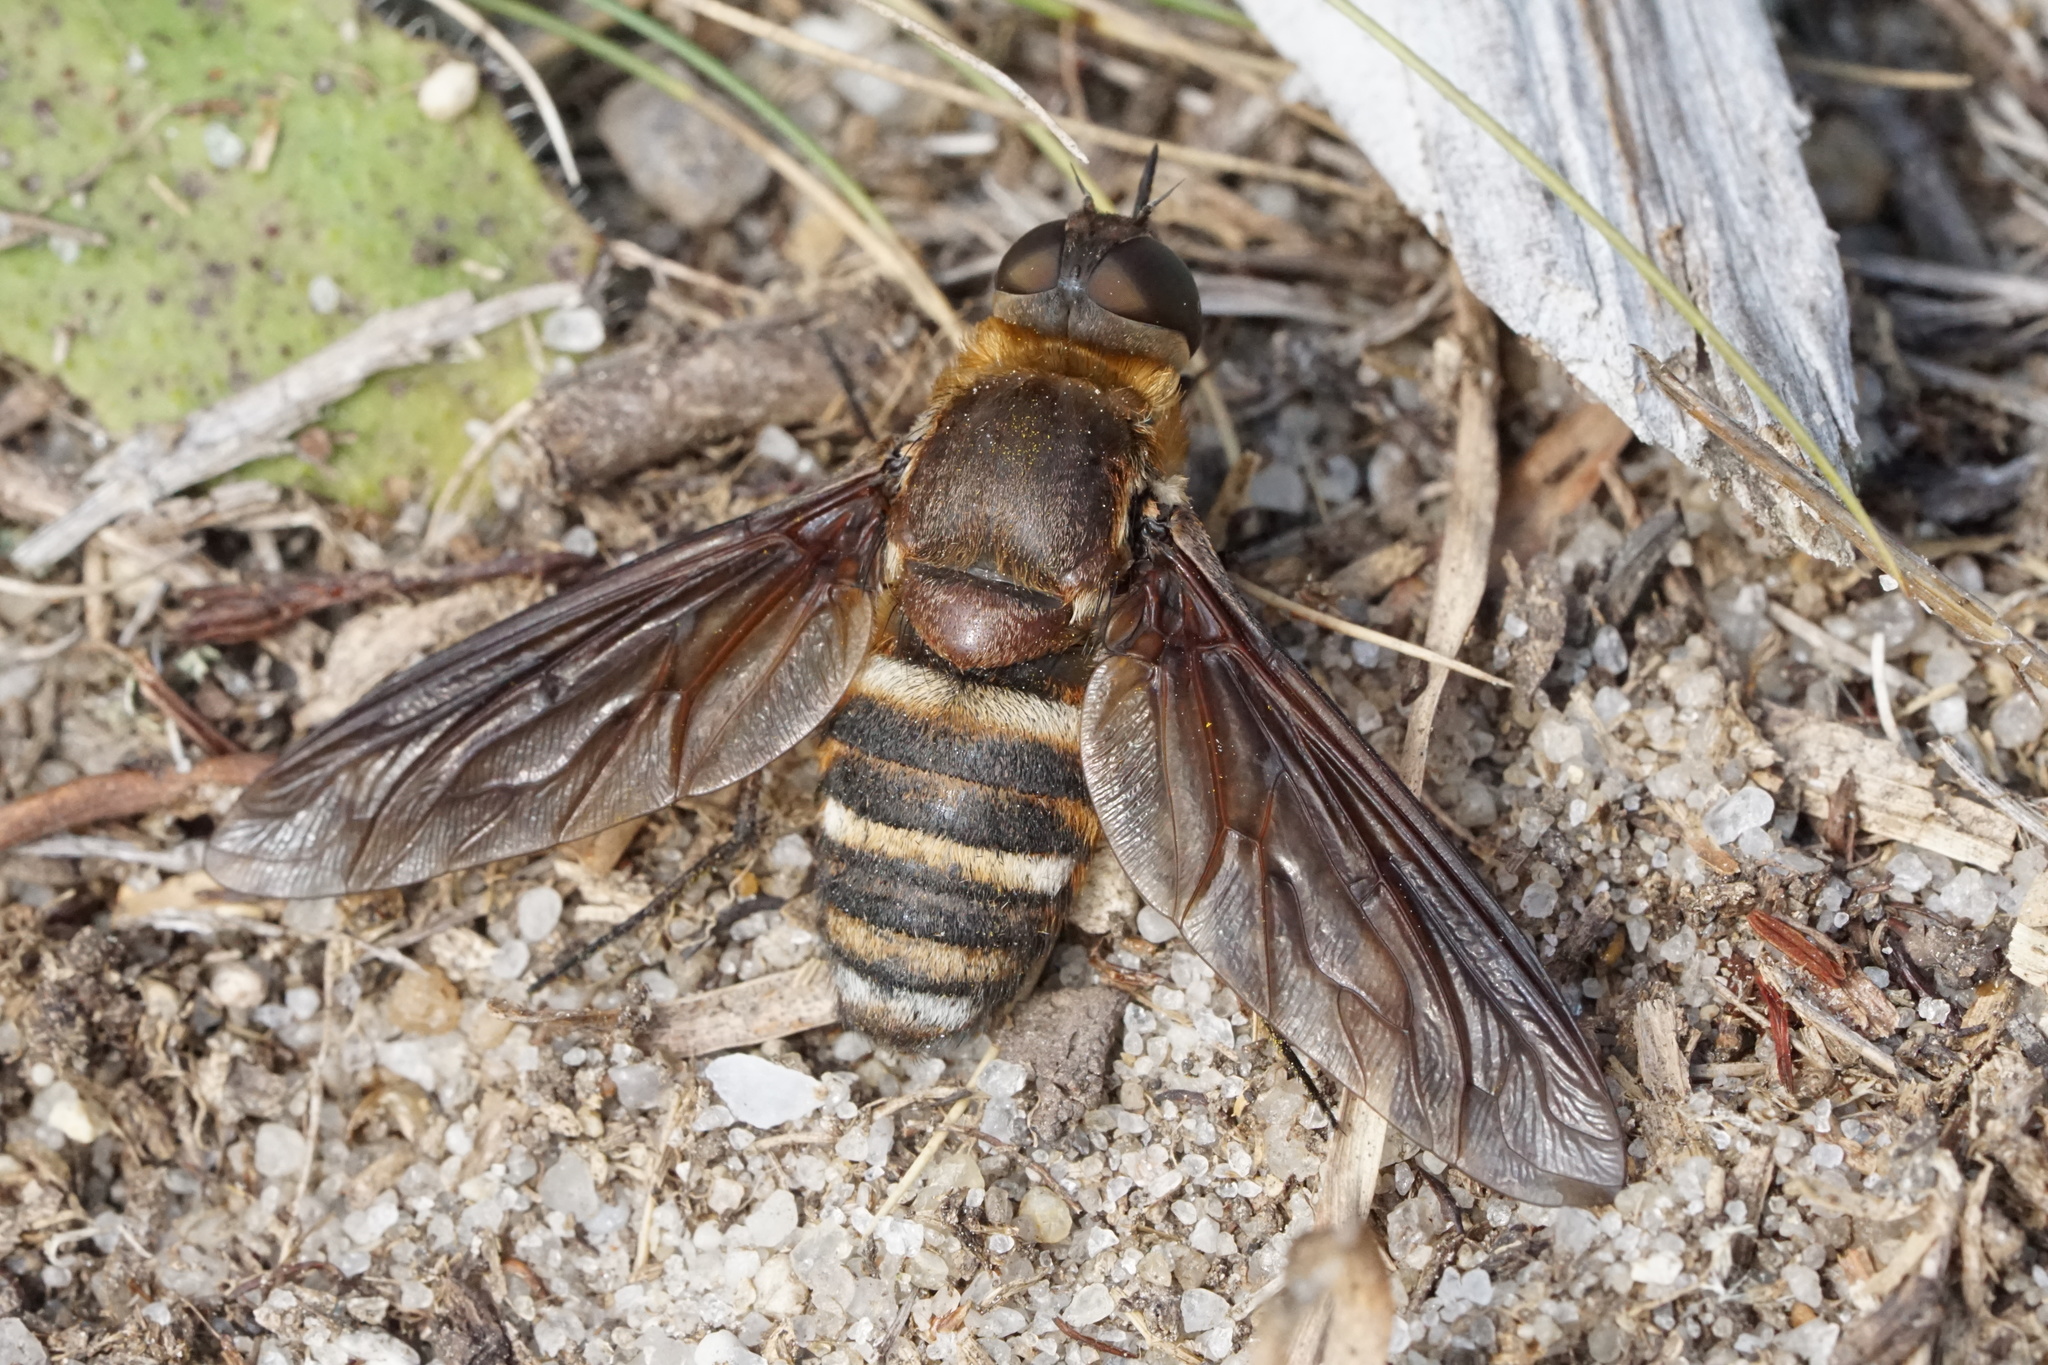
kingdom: Animalia
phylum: Arthropoda
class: Insecta
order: Diptera
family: Bombyliidae
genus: Exoprosopa
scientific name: Exoprosopa fasciata
